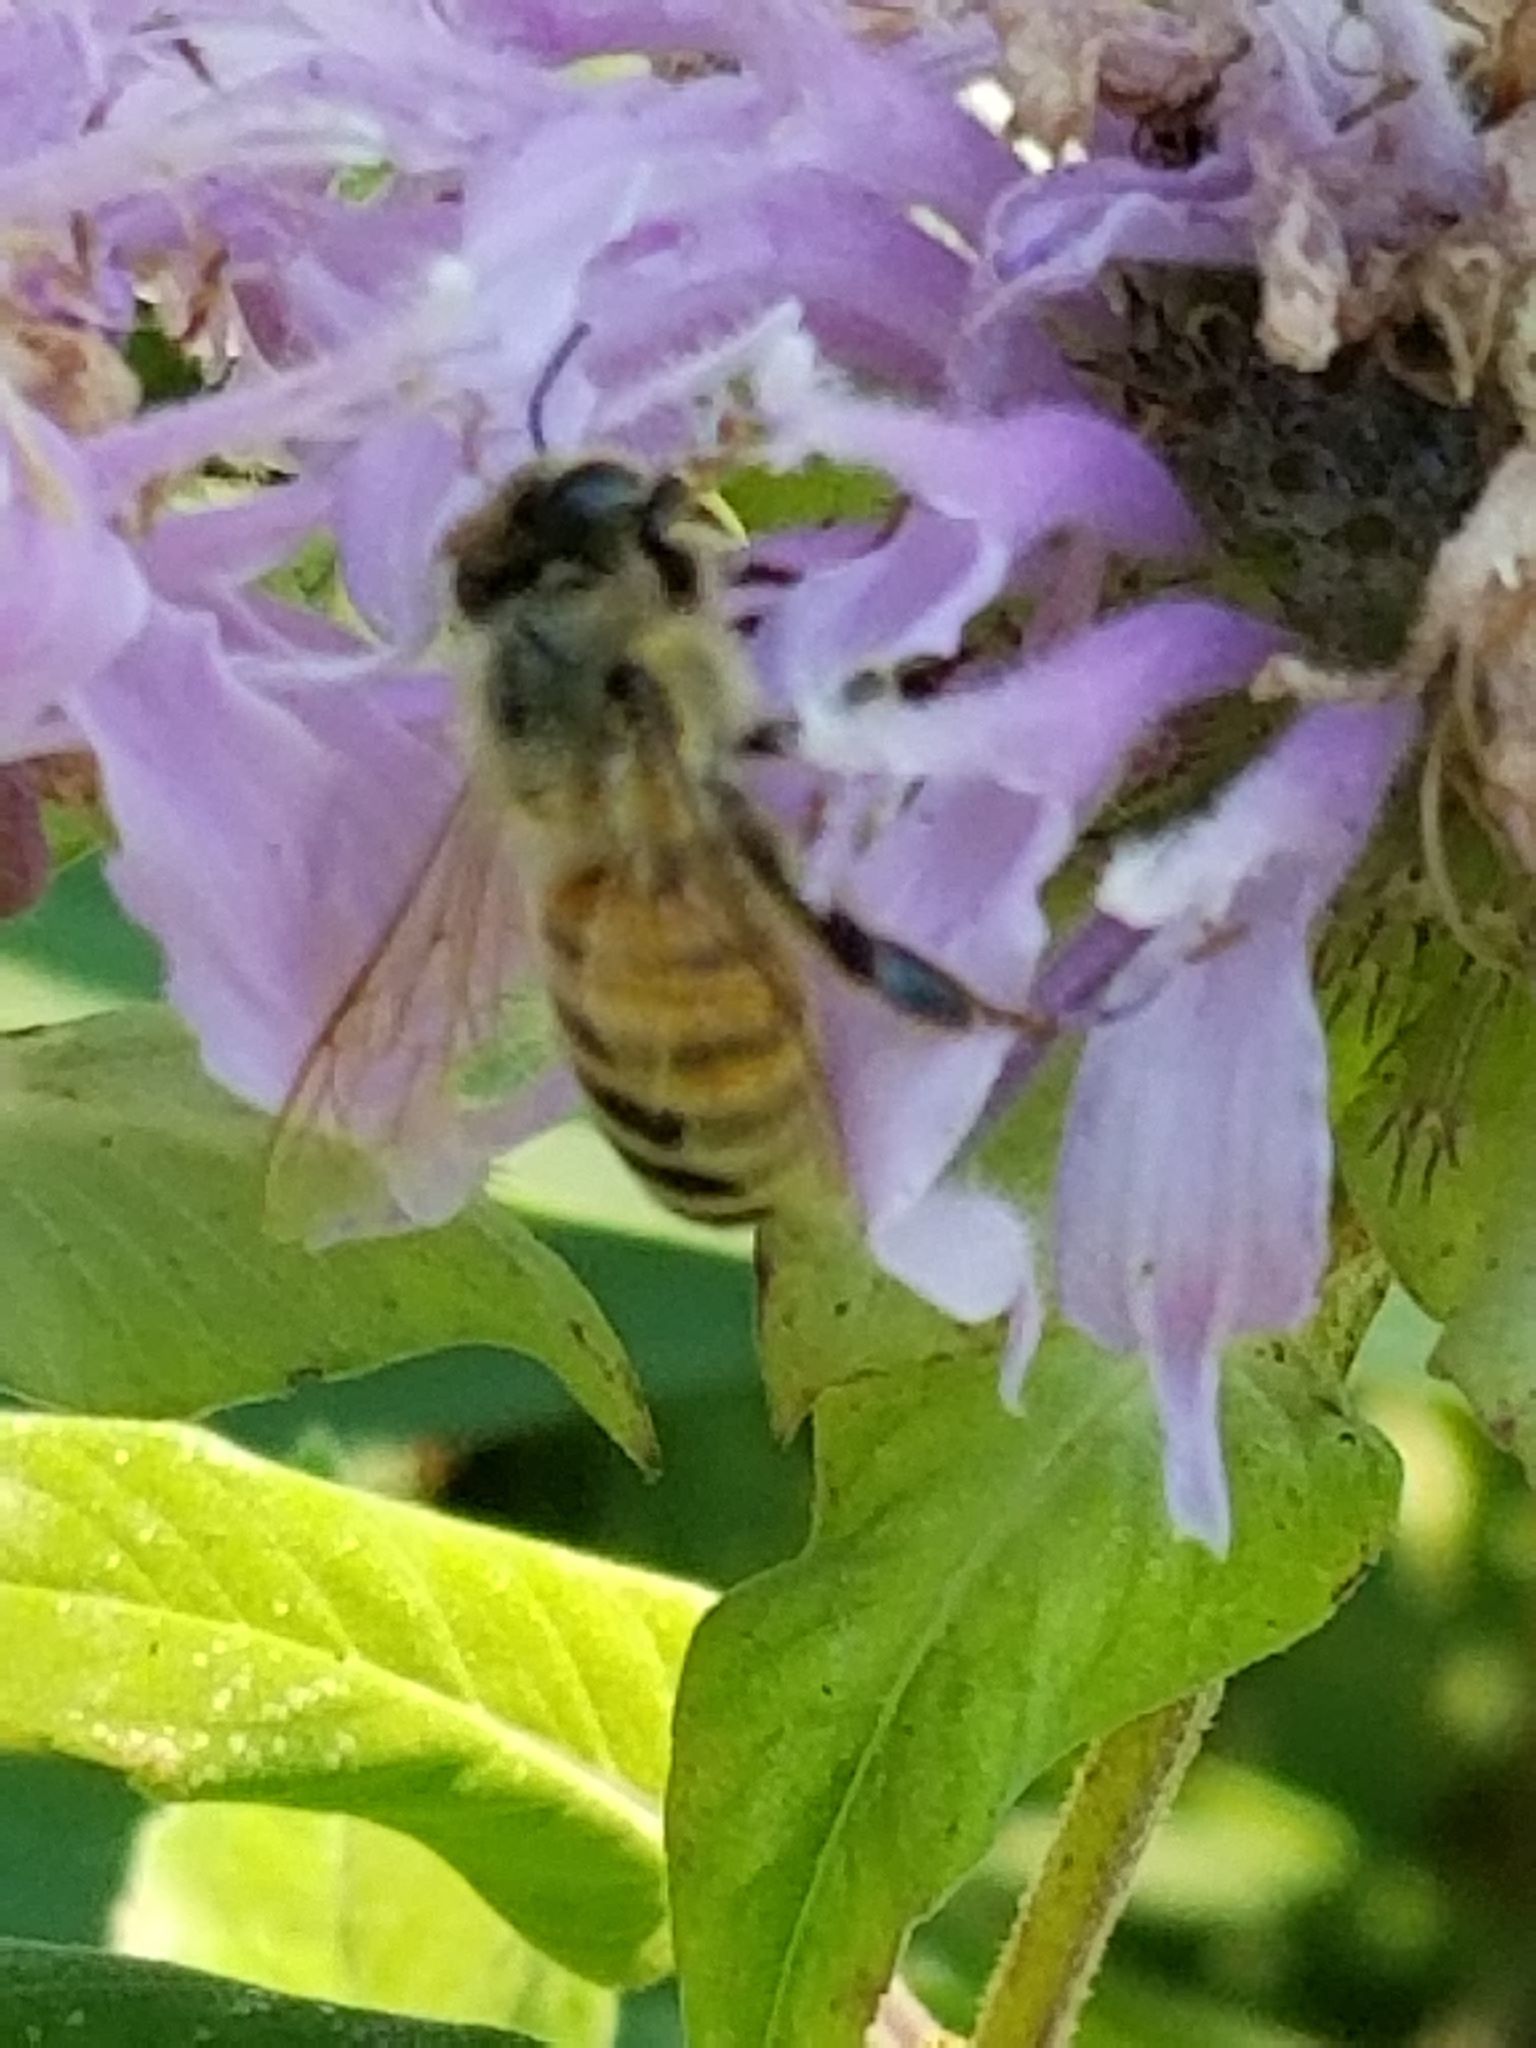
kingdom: Animalia
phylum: Arthropoda
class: Insecta
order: Hymenoptera
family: Apidae
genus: Apis
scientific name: Apis mellifera
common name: Honey bee
